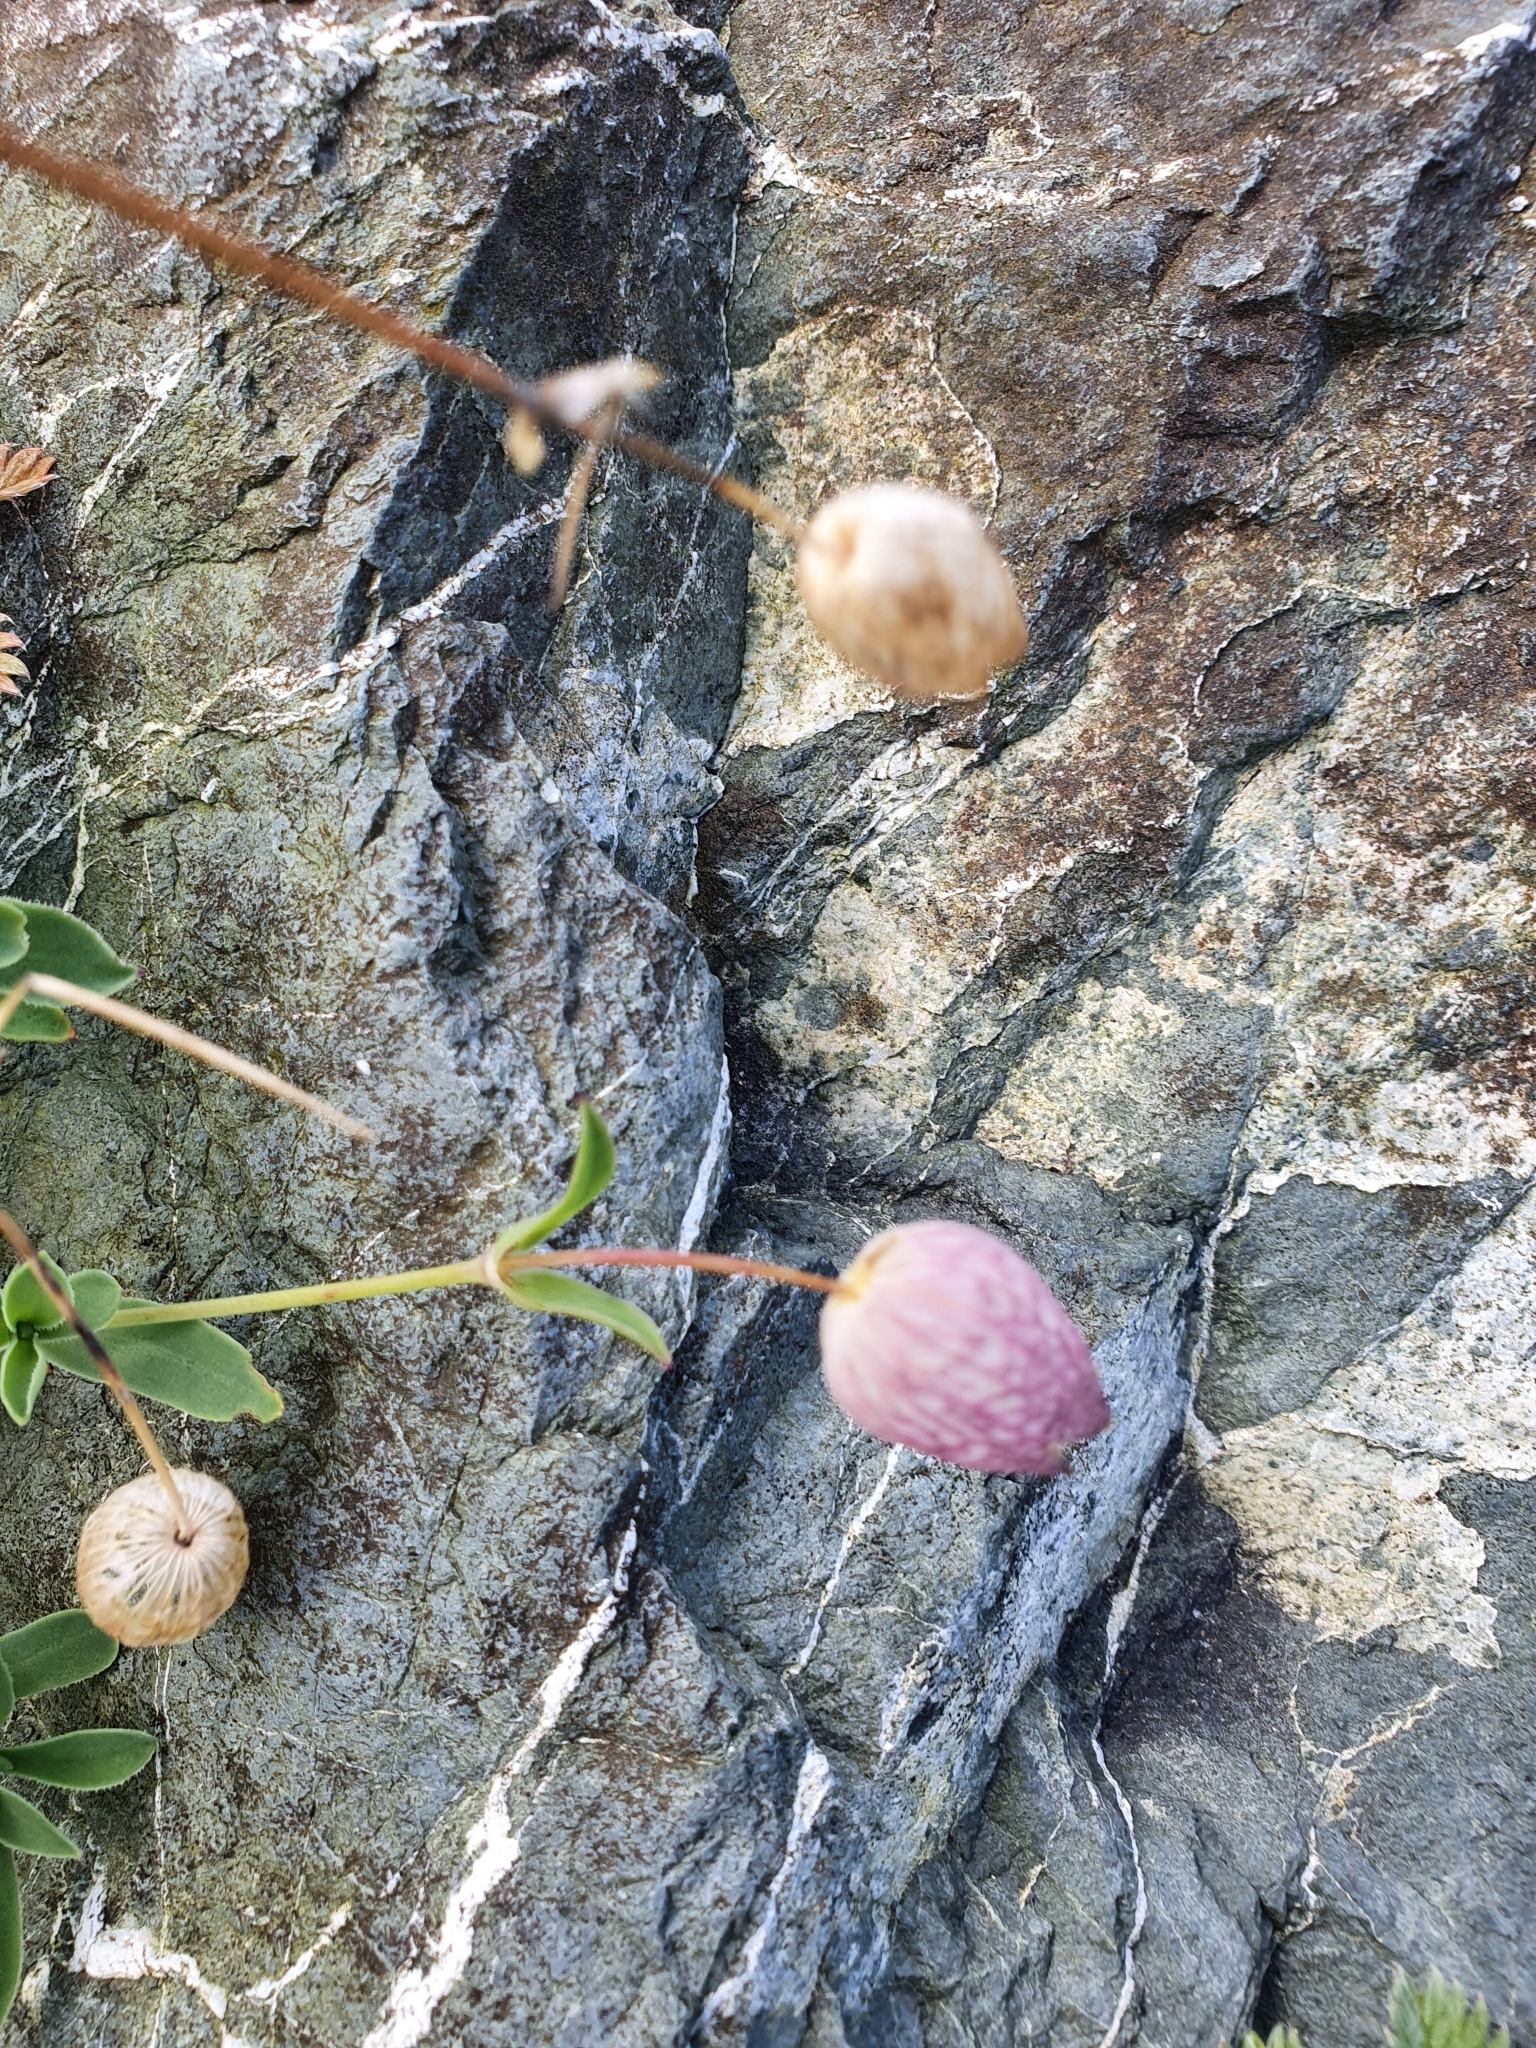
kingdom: Plantae
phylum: Tracheophyta
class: Magnoliopsida
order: Caryophyllales
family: Caryophyllaceae
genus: Silene
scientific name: Silene uniflora
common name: Sea campion
